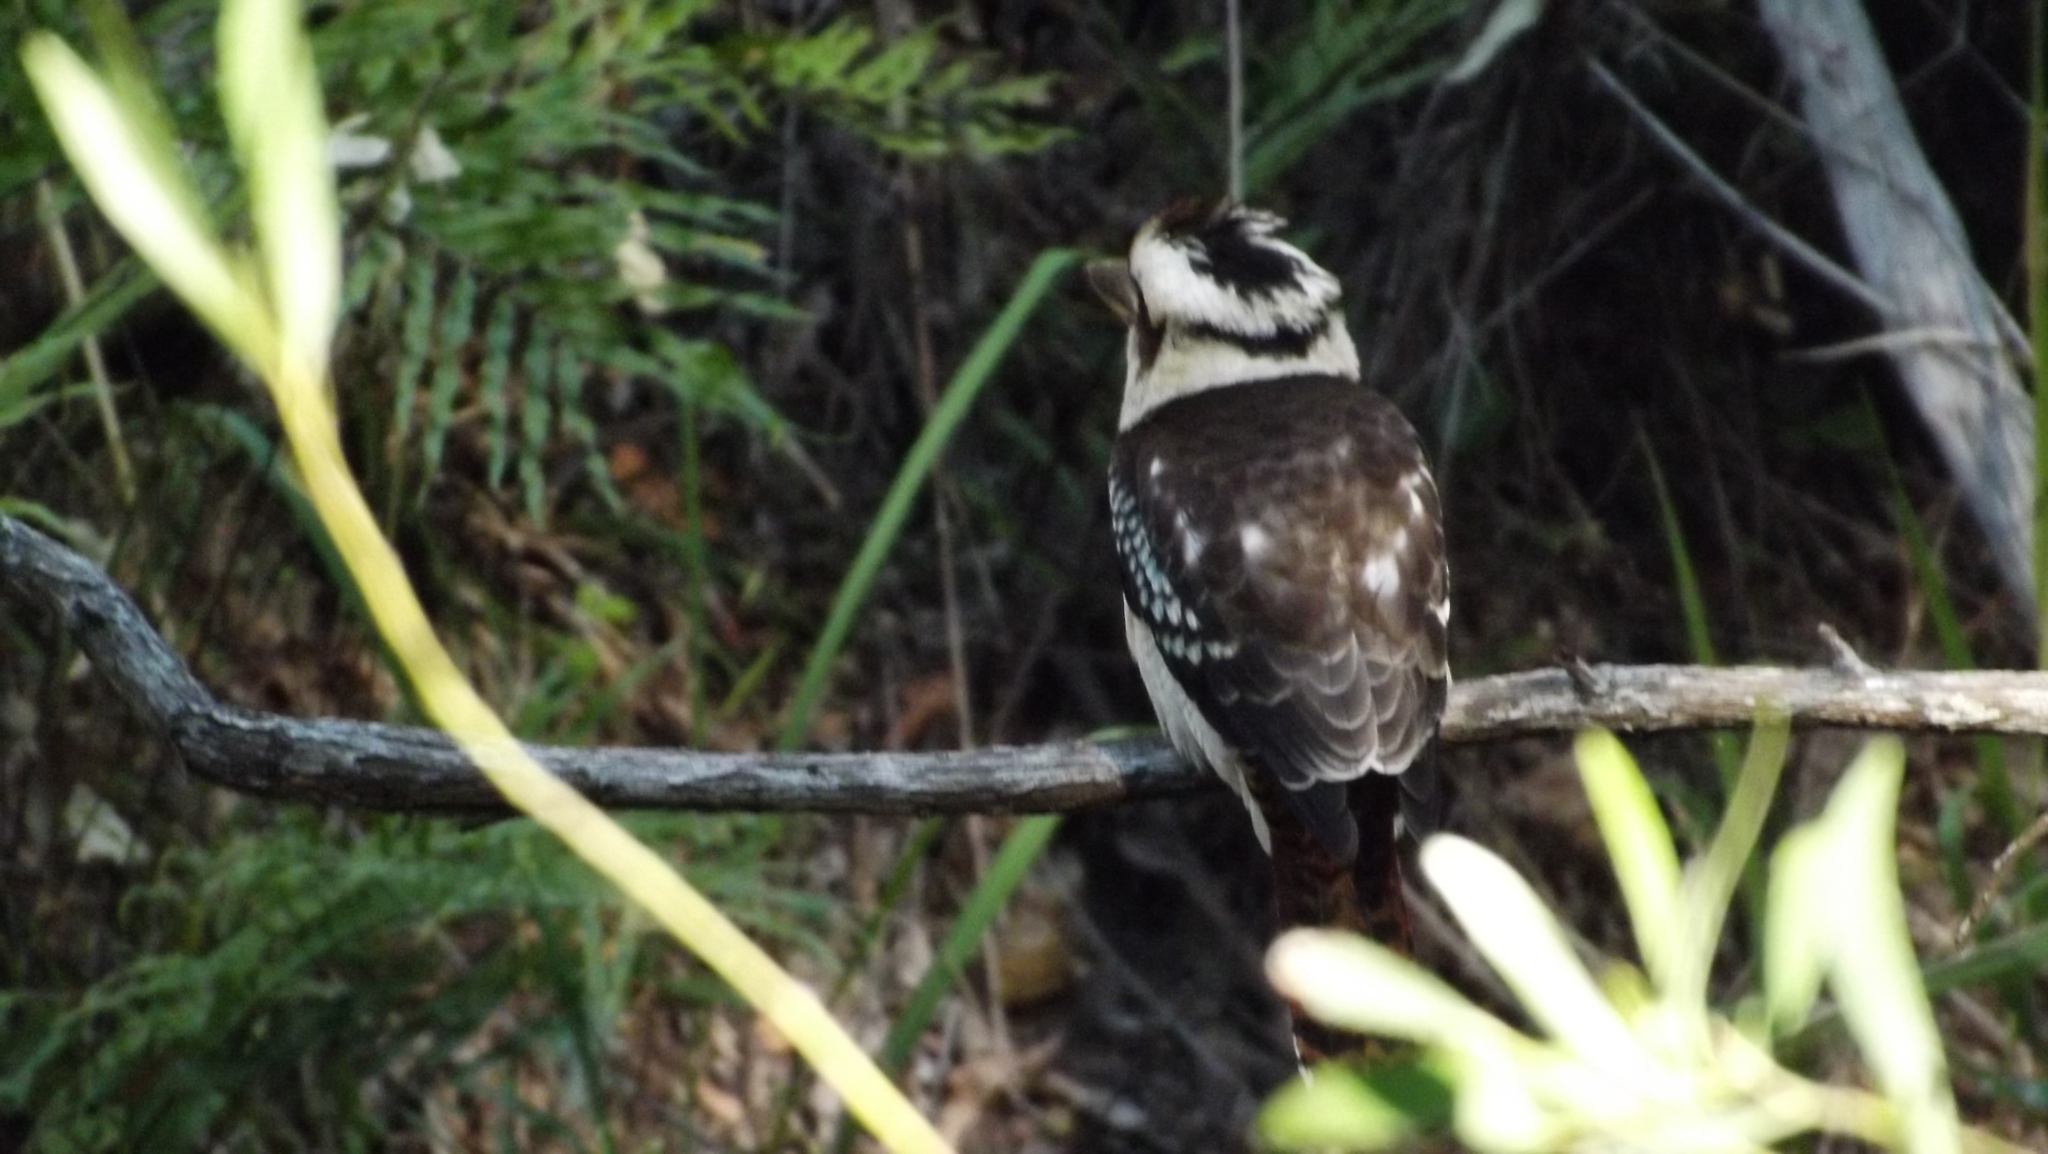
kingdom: Animalia
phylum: Chordata
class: Aves
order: Coraciiformes
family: Alcedinidae
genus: Dacelo
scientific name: Dacelo novaeguineae
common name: Laughing kookaburra
